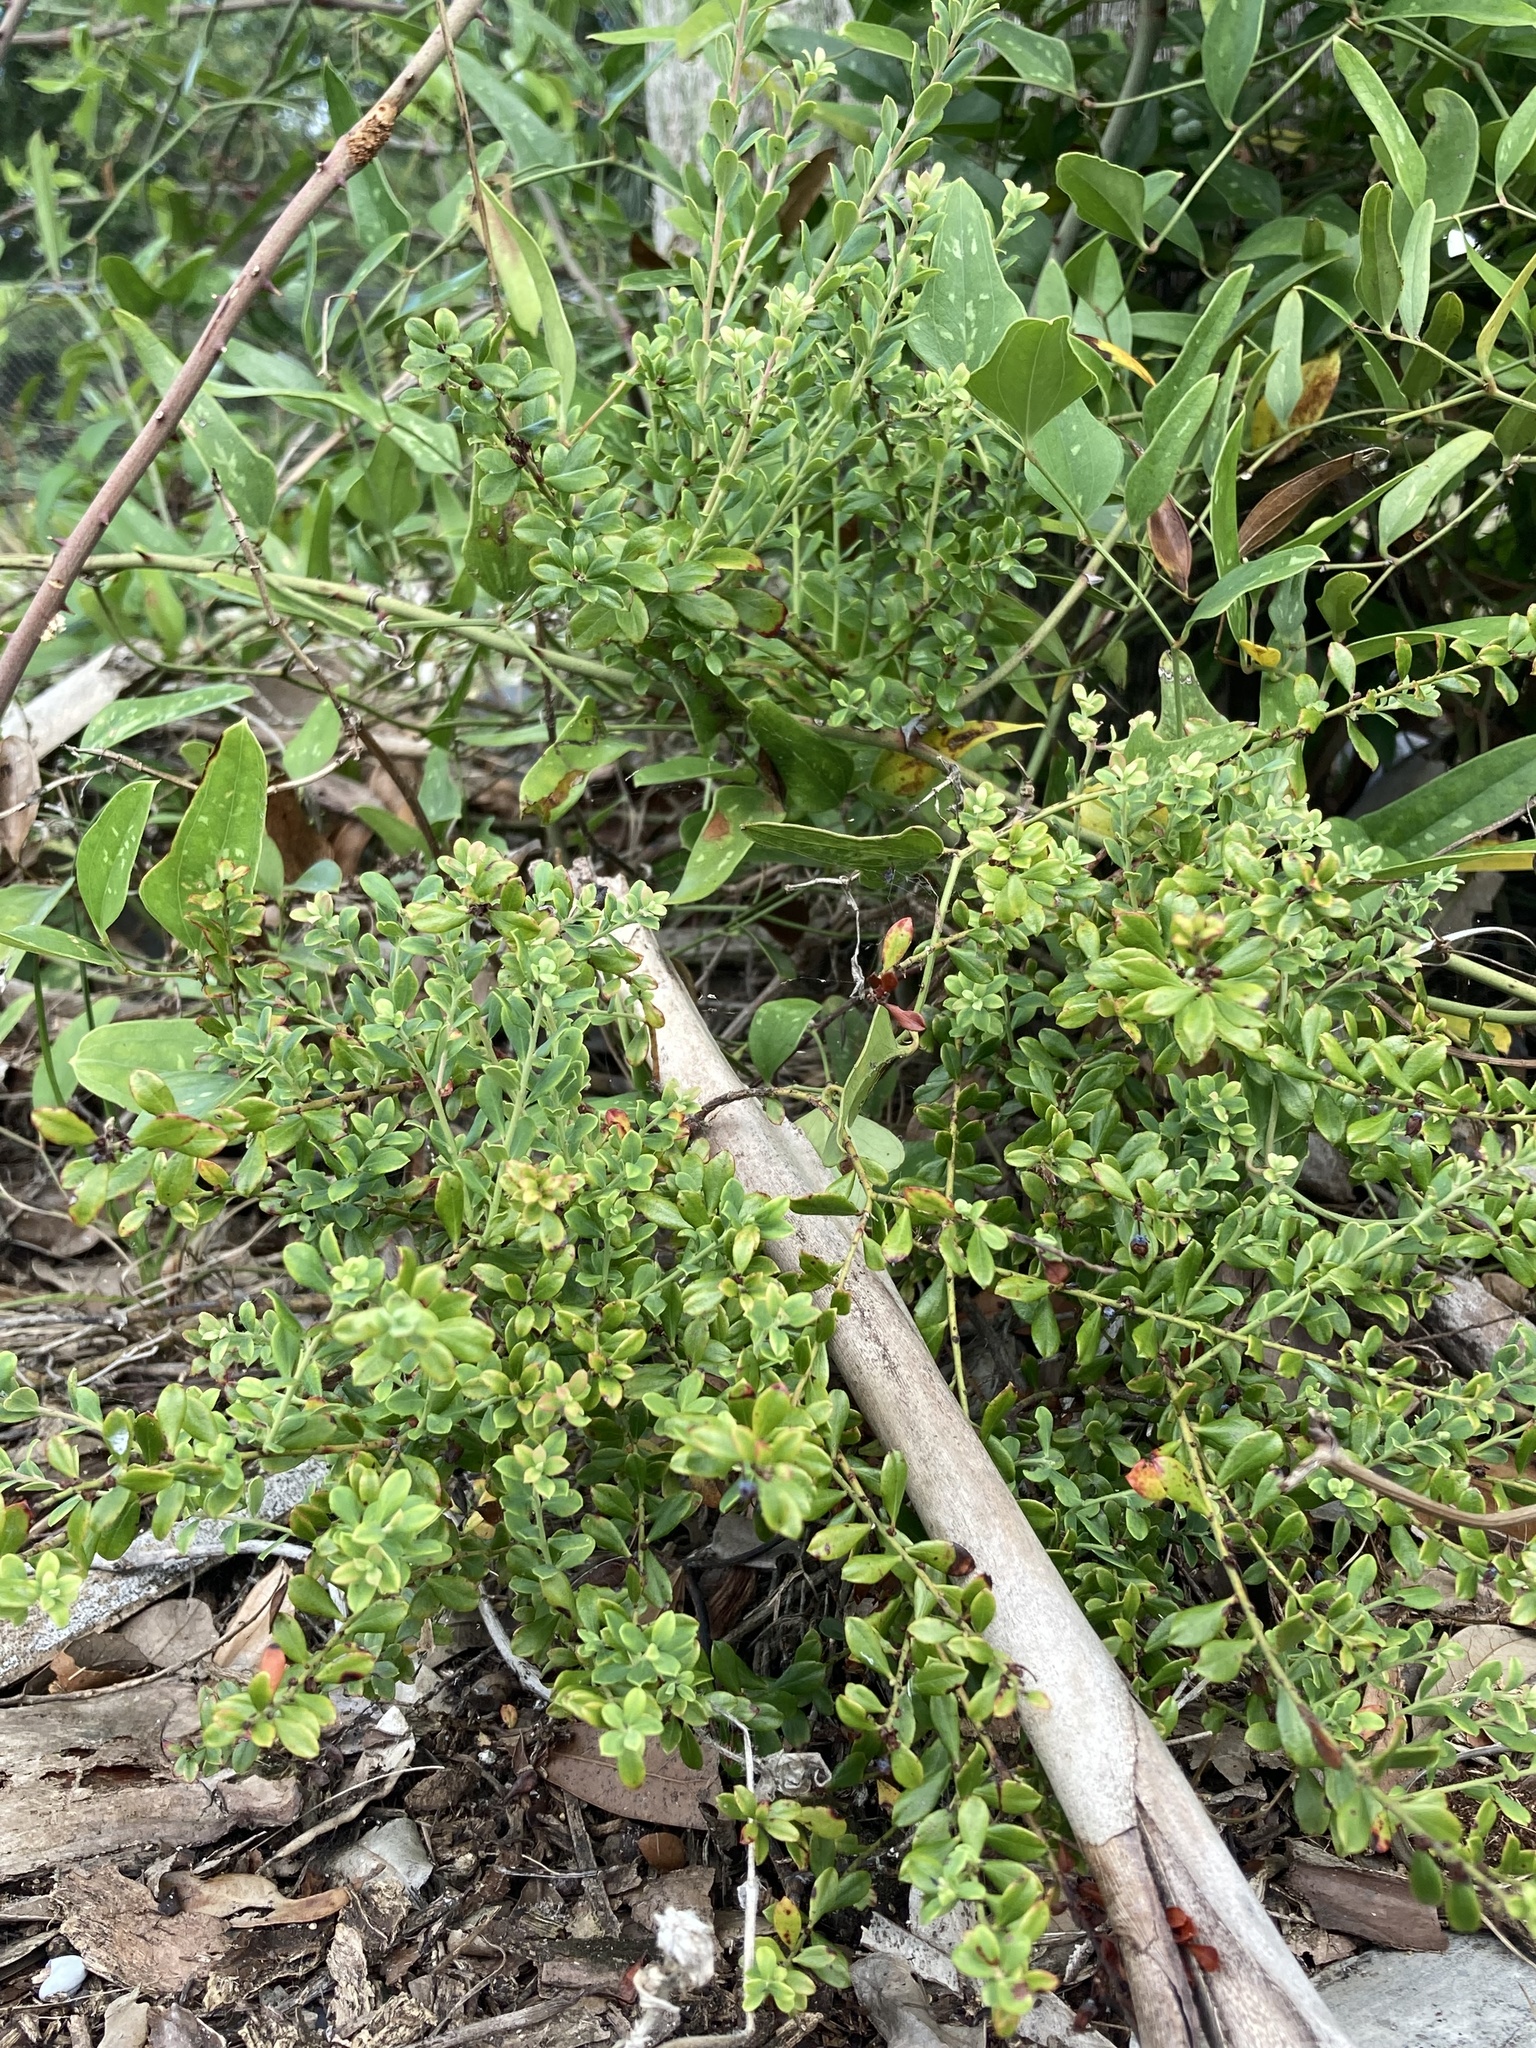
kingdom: Plantae
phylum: Tracheophyta
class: Magnoliopsida
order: Ericales
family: Ericaceae
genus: Vaccinium
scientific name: Vaccinium myrsinites
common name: Evergreen blueberry
